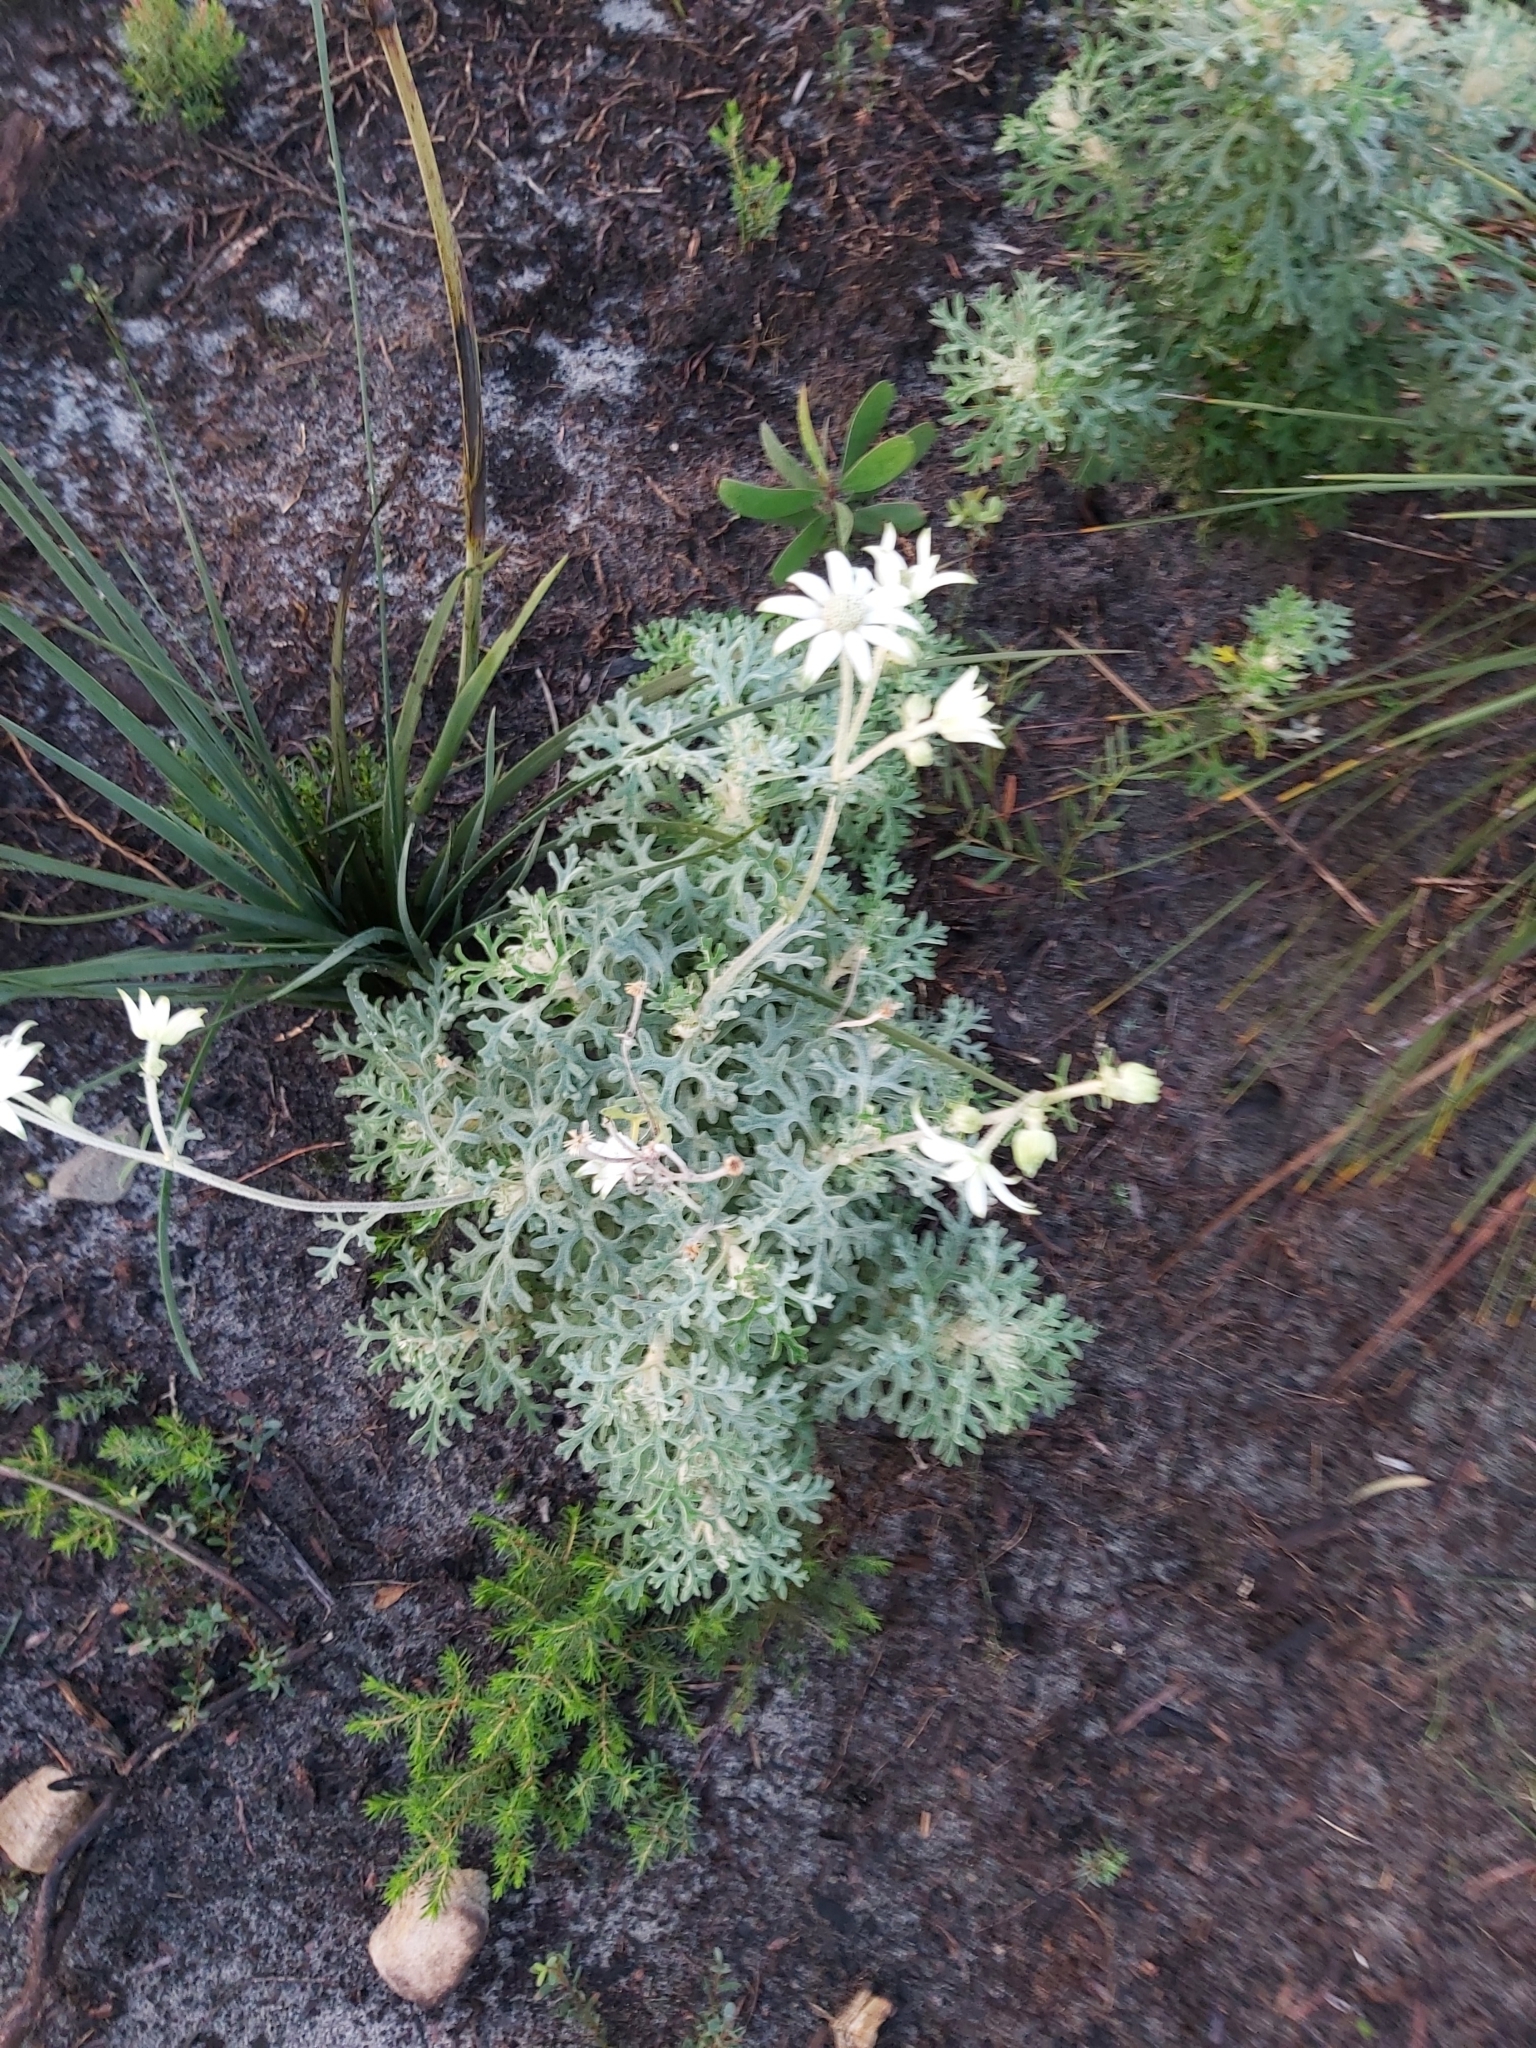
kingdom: Plantae
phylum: Tracheophyta
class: Magnoliopsida
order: Apiales
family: Apiaceae
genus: Actinotus
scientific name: Actinotus helianthi
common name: Flannel-flower
